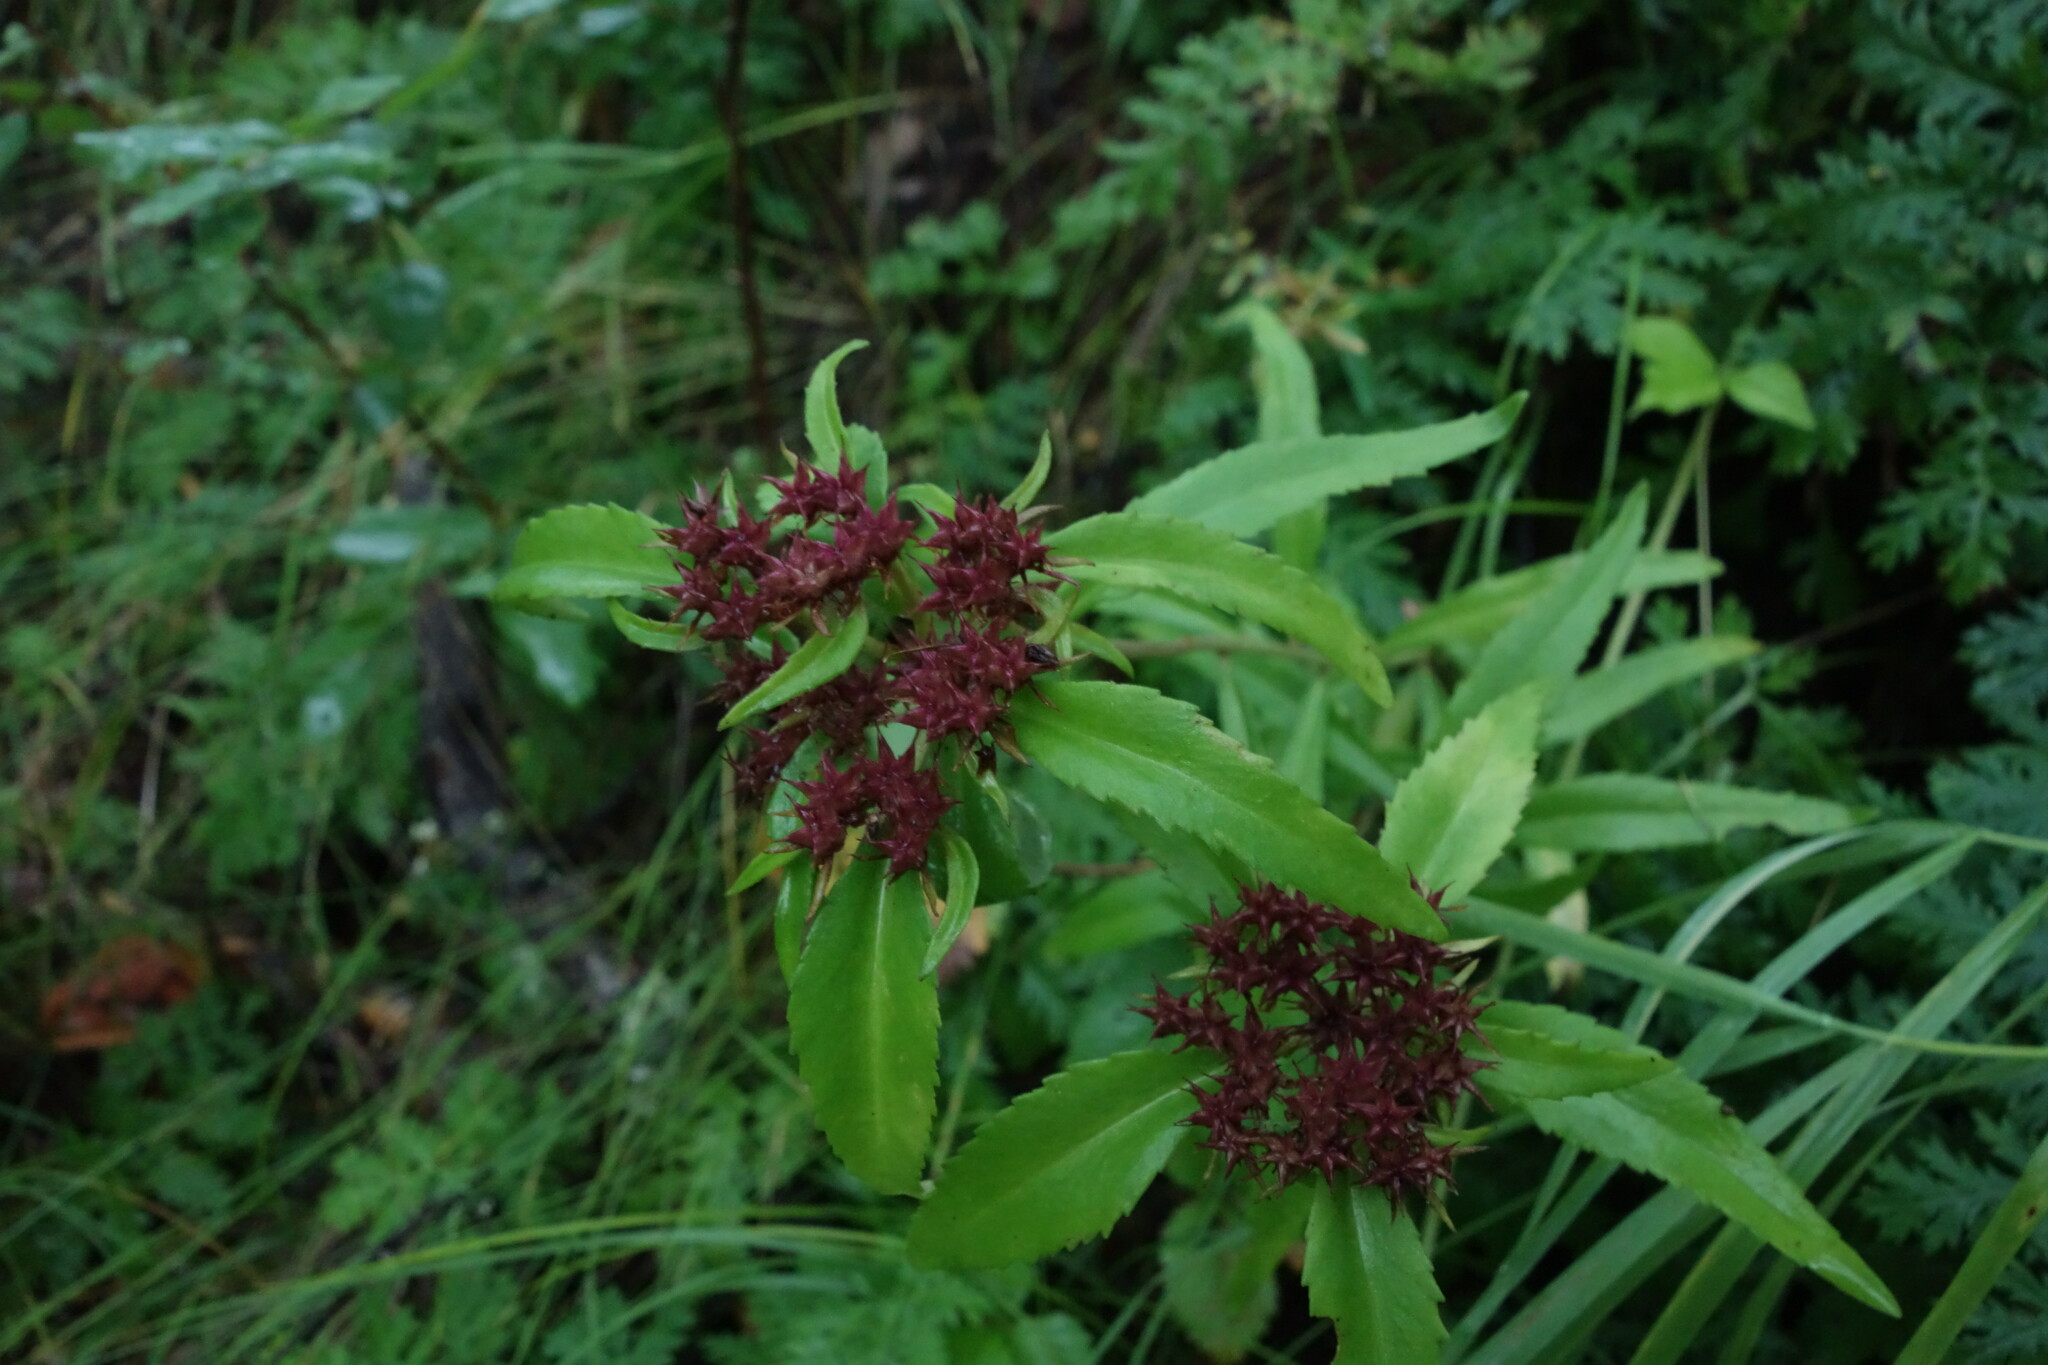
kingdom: Plantae
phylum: Tracheophyta
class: Magnoliopsida
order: Saxifragales
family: Crassulaceae
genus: Phedimus
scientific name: Phedimus aizoon
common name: Orpin aizoon
